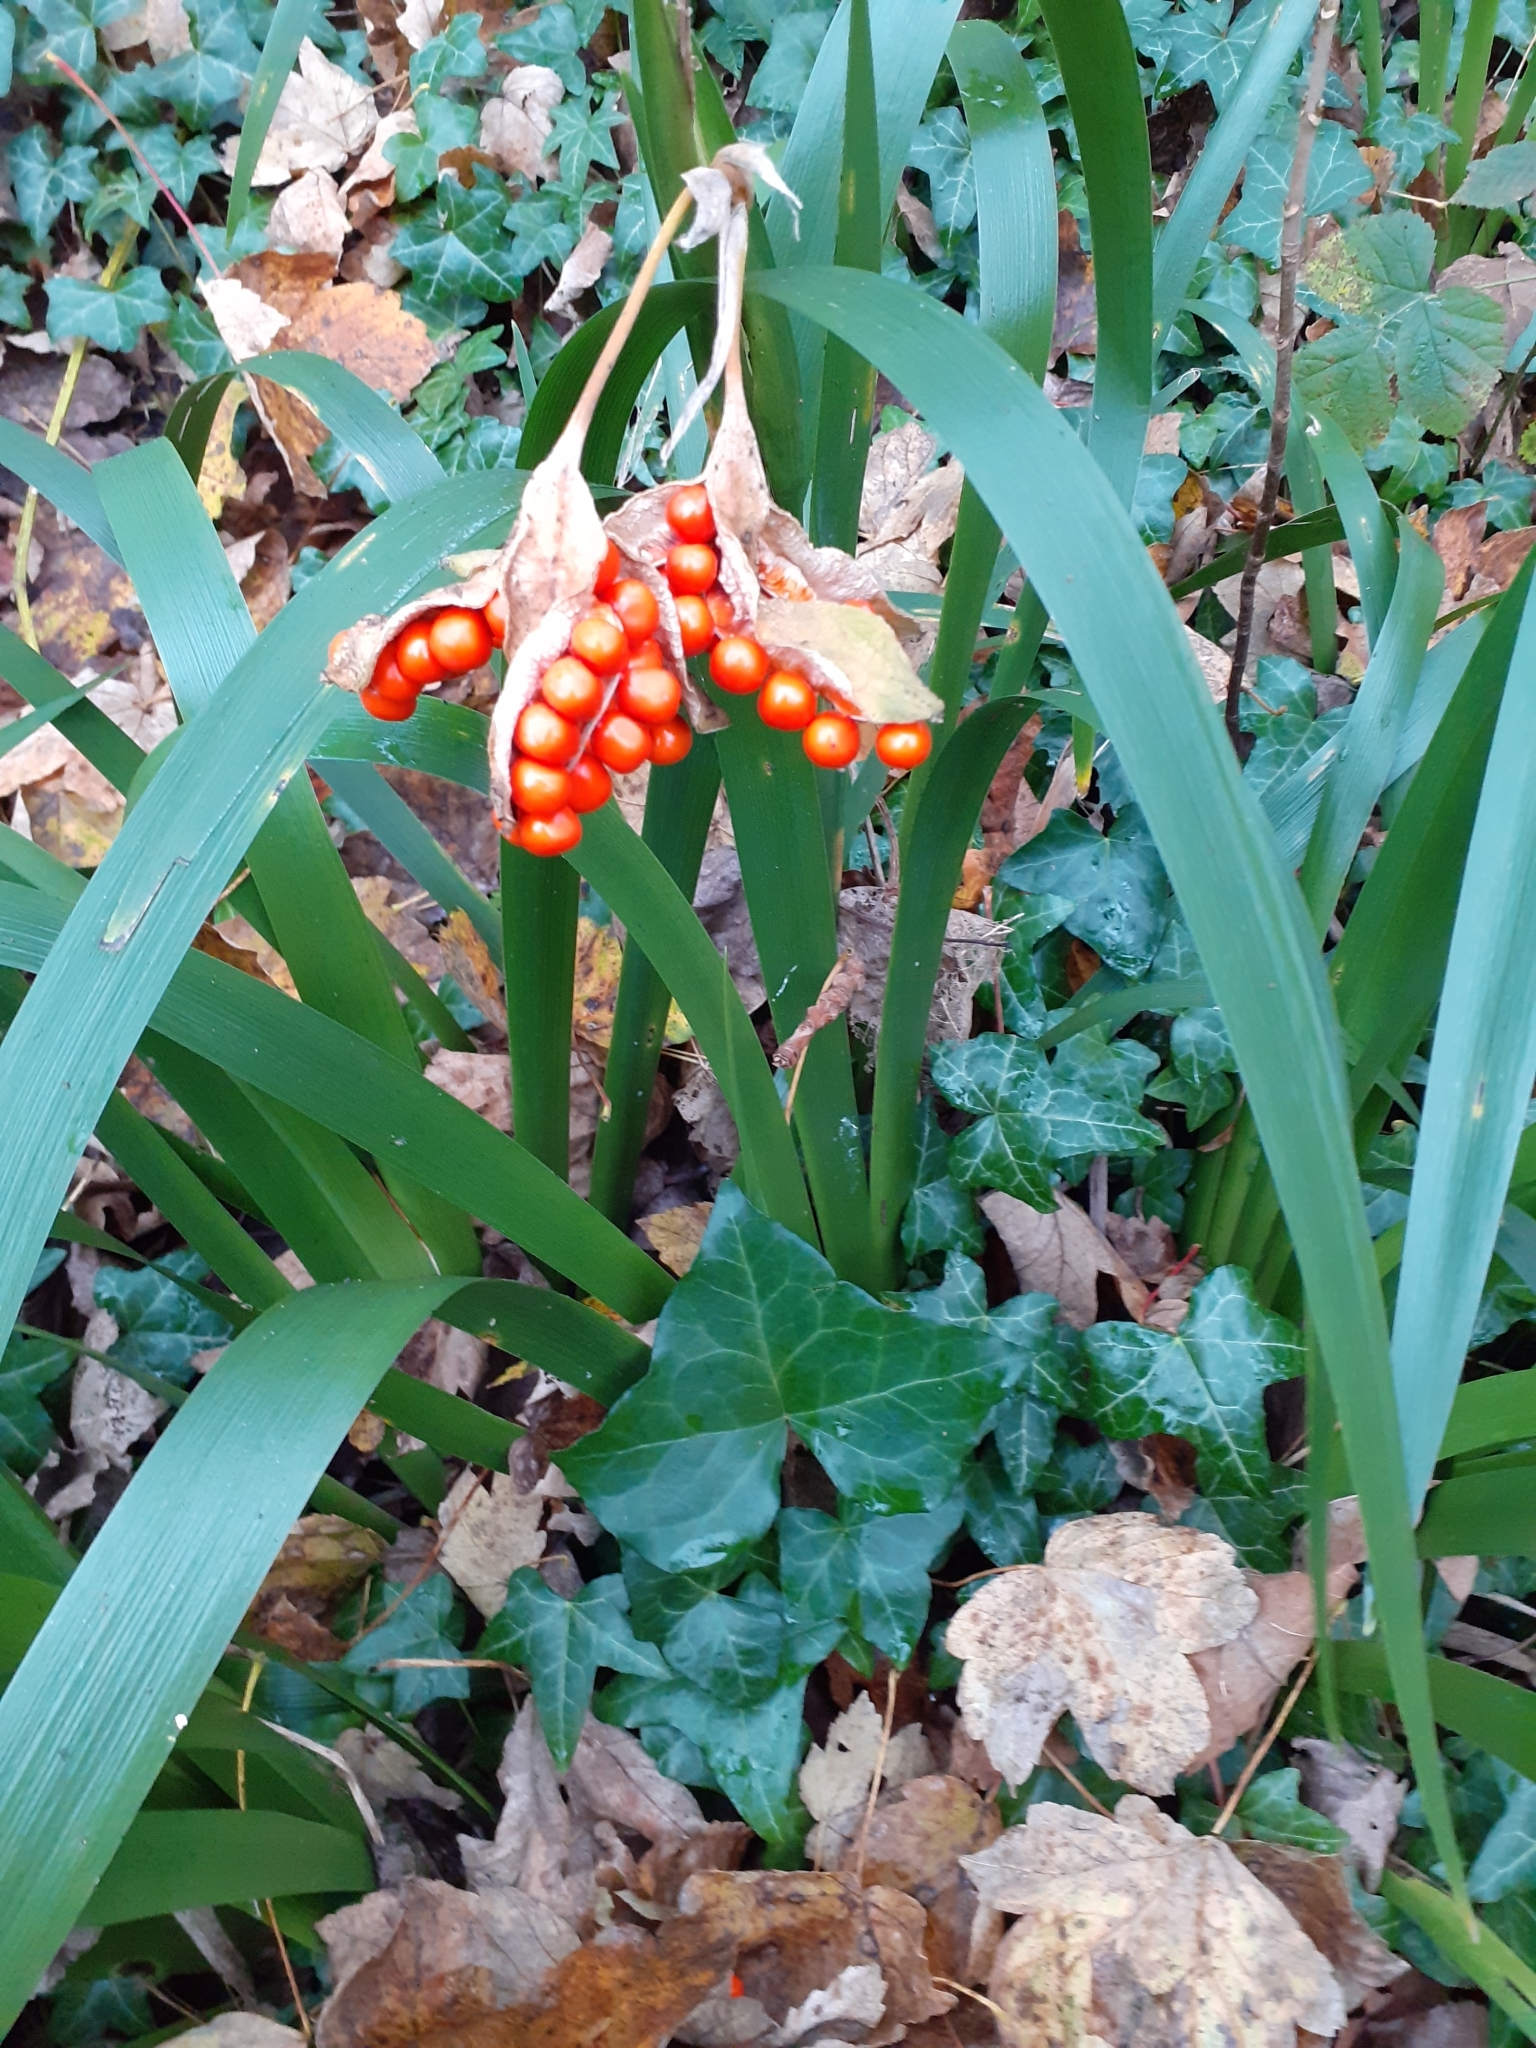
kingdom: Plantae
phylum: Tracheophyta
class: Liliopsida
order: Asparagales
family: Iridaceae
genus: Iris
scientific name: Iris foetidissima
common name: Stinking iris
